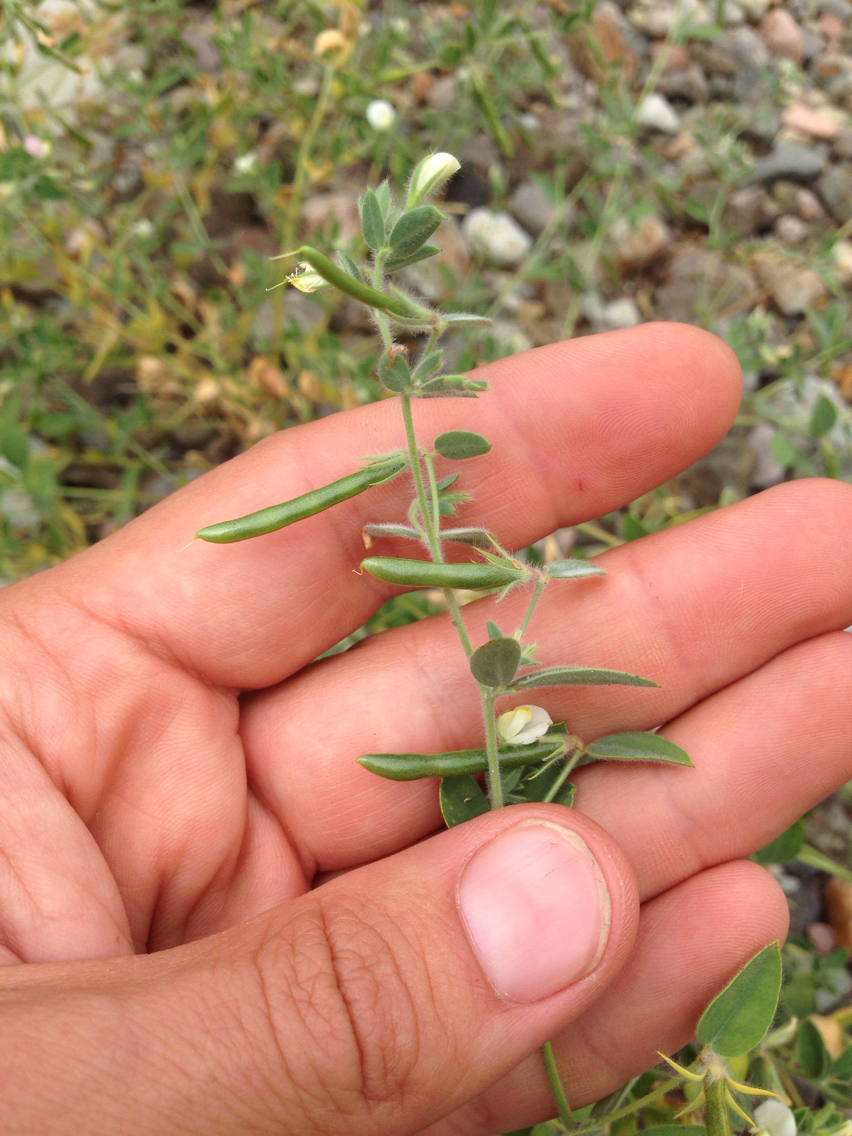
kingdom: Plantae
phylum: Tracheophyta
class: Magnoliopsida
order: Fabales
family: Fabaceae
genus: Acmispon
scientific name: Acmispon americanus
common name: American bird's-foot trefoil
